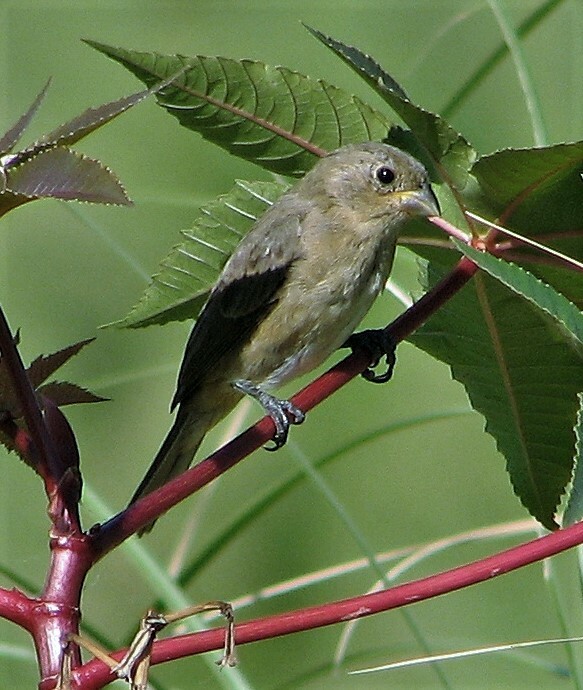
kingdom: Animalia
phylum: Chordata
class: Aves
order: Passeriformes
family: Thraupidae
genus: Sporophila
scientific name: Sporophila caerulescens
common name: Double-collared seedeater
